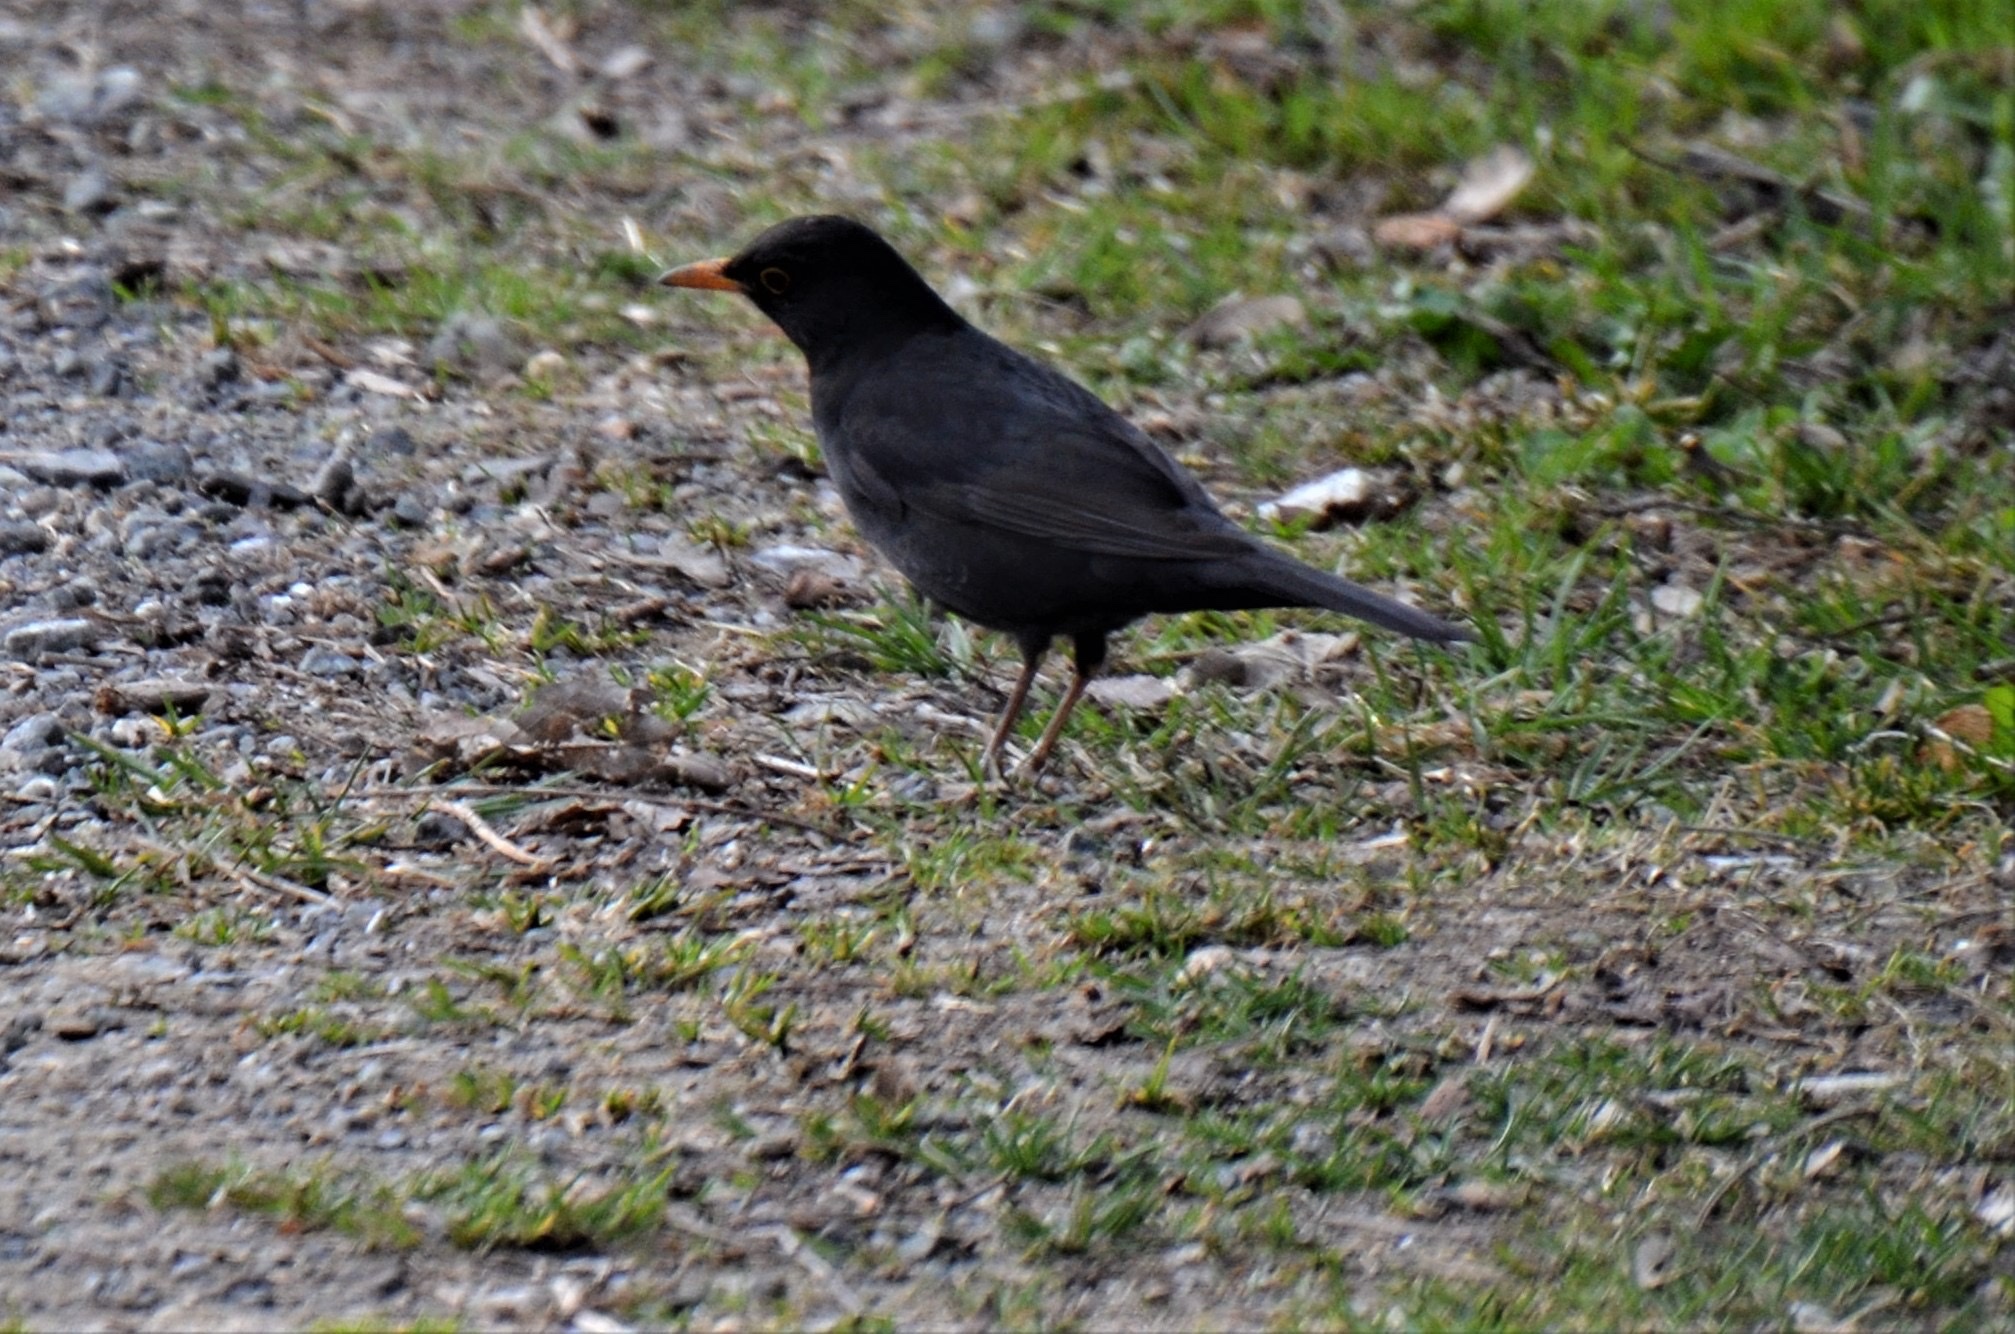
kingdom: Animalia
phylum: Chordata
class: Aves
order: Passeriformes
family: Turdidae
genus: Turdus
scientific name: Turdus merula
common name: Common blackbird
